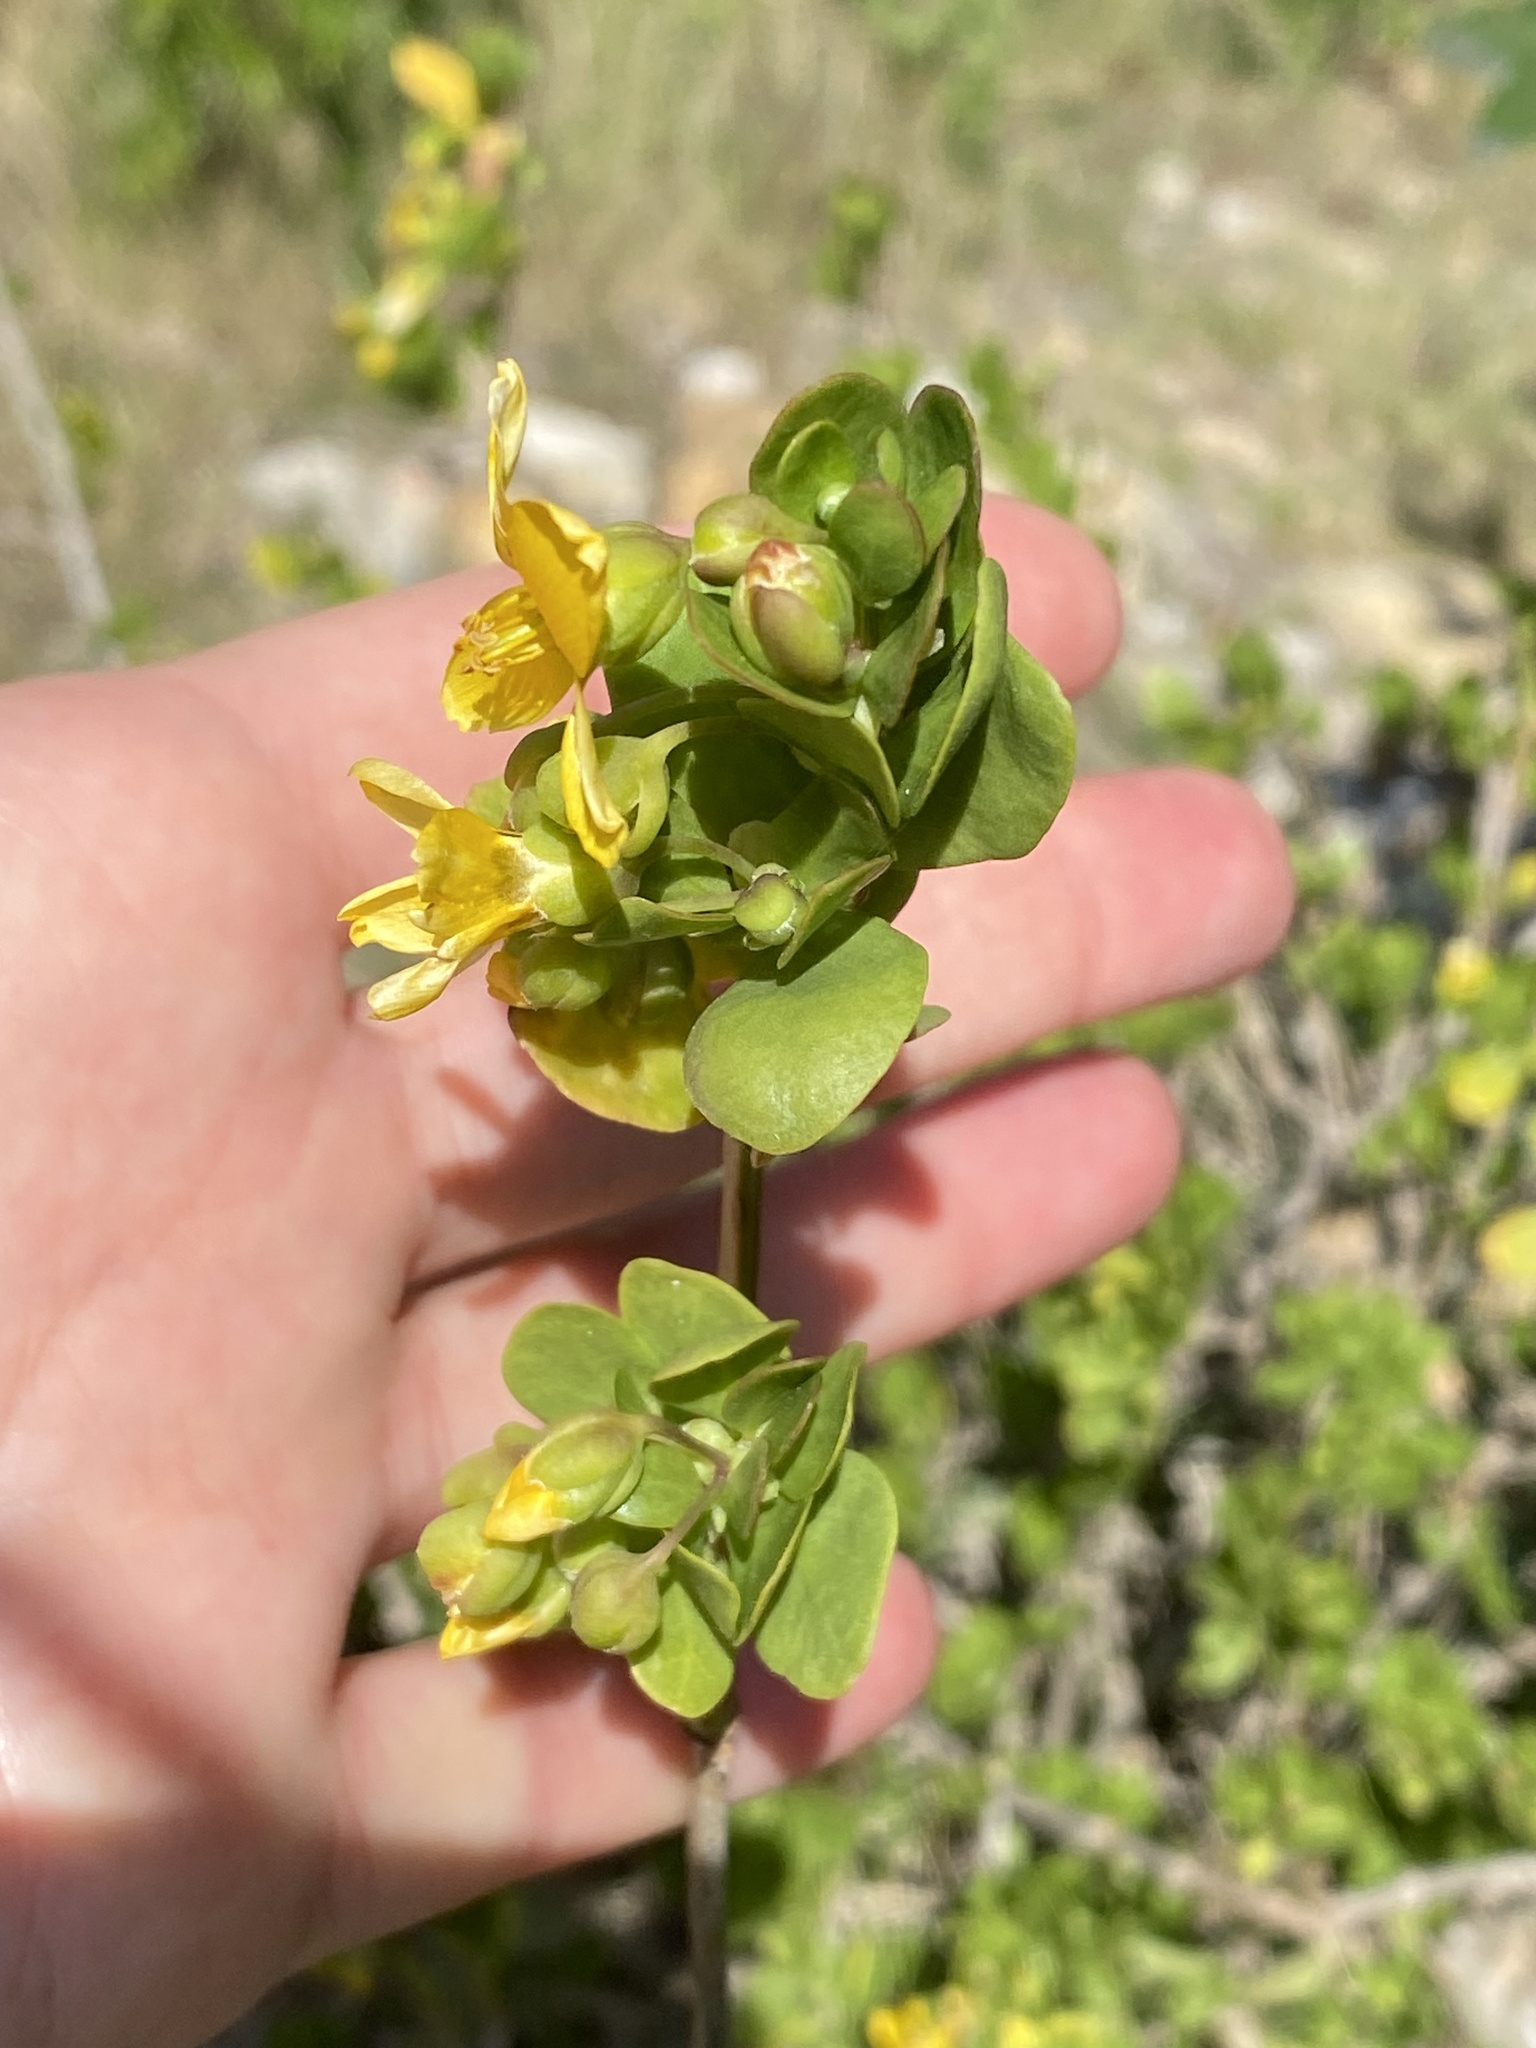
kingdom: Plantae
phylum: Tracheophyta
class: Magnoliopsida
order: Zygophyllales
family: Zygophyllaceae
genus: Roepera
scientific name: Roepera morgsana
